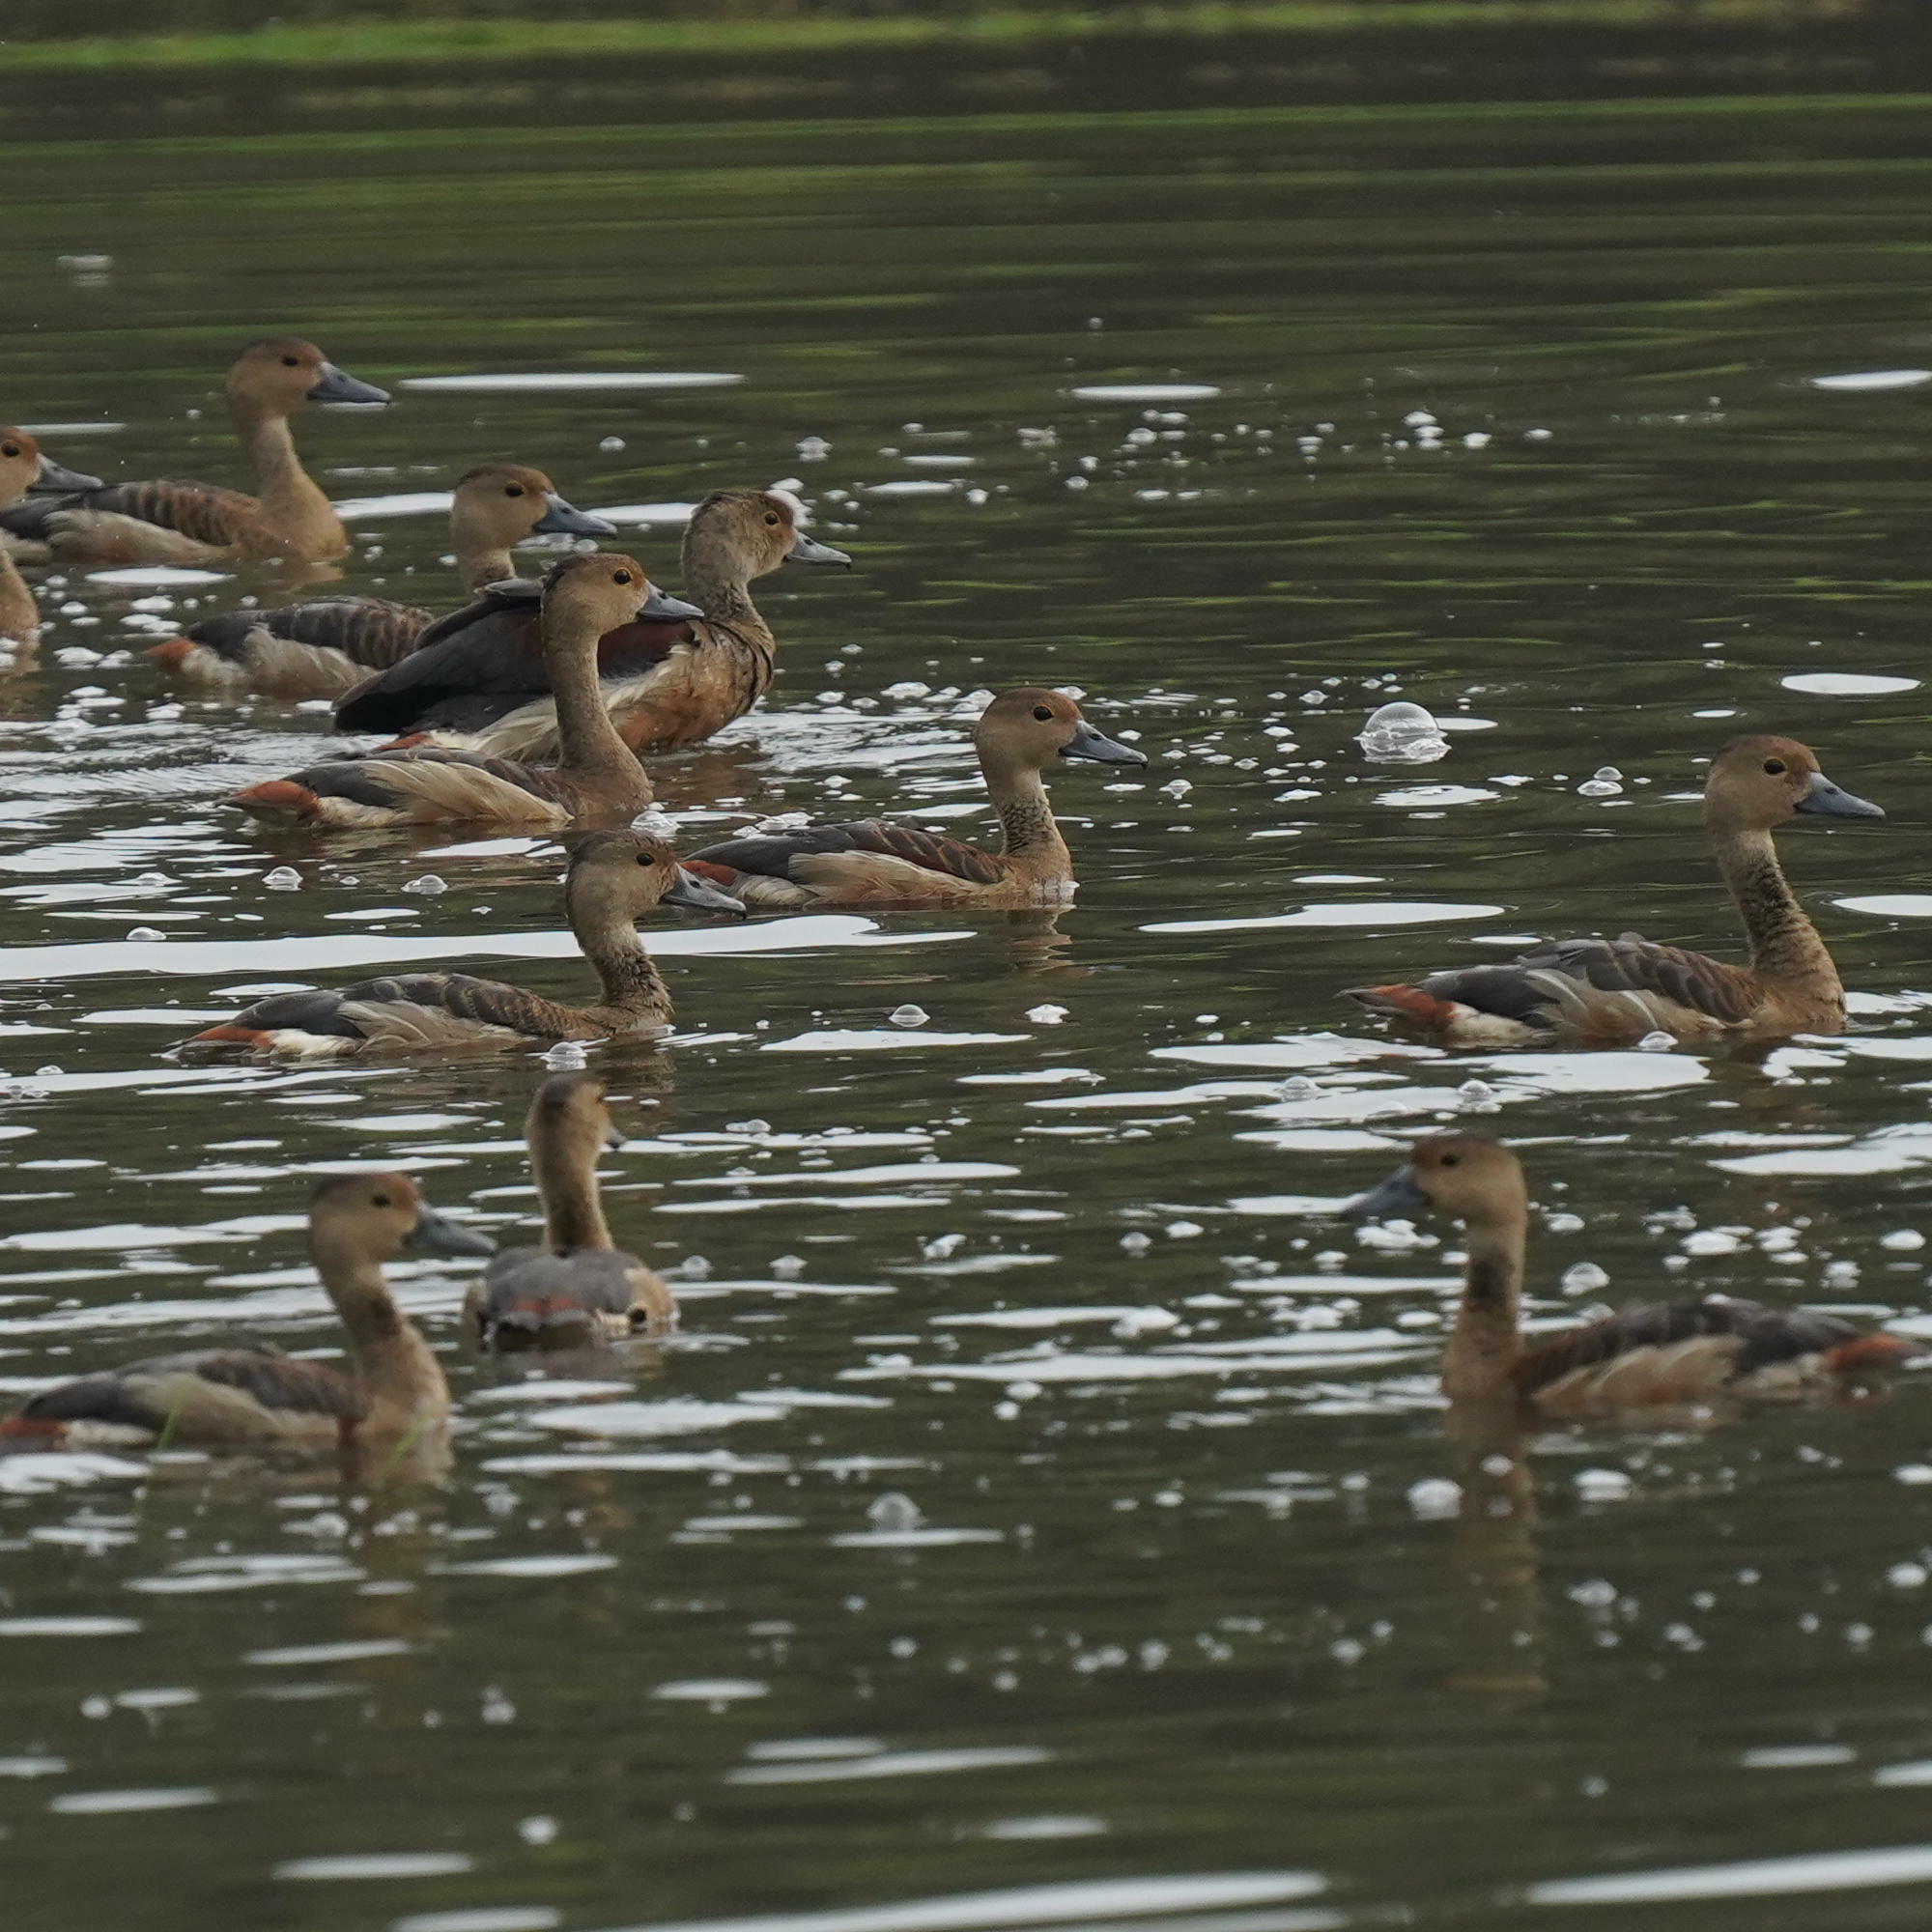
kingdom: Animalia
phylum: Chordata
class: Aves
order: Anseriformes
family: Anatidae
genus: Dendrocygna
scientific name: Dendrocygna javanica
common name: Lesser whistling-duck
